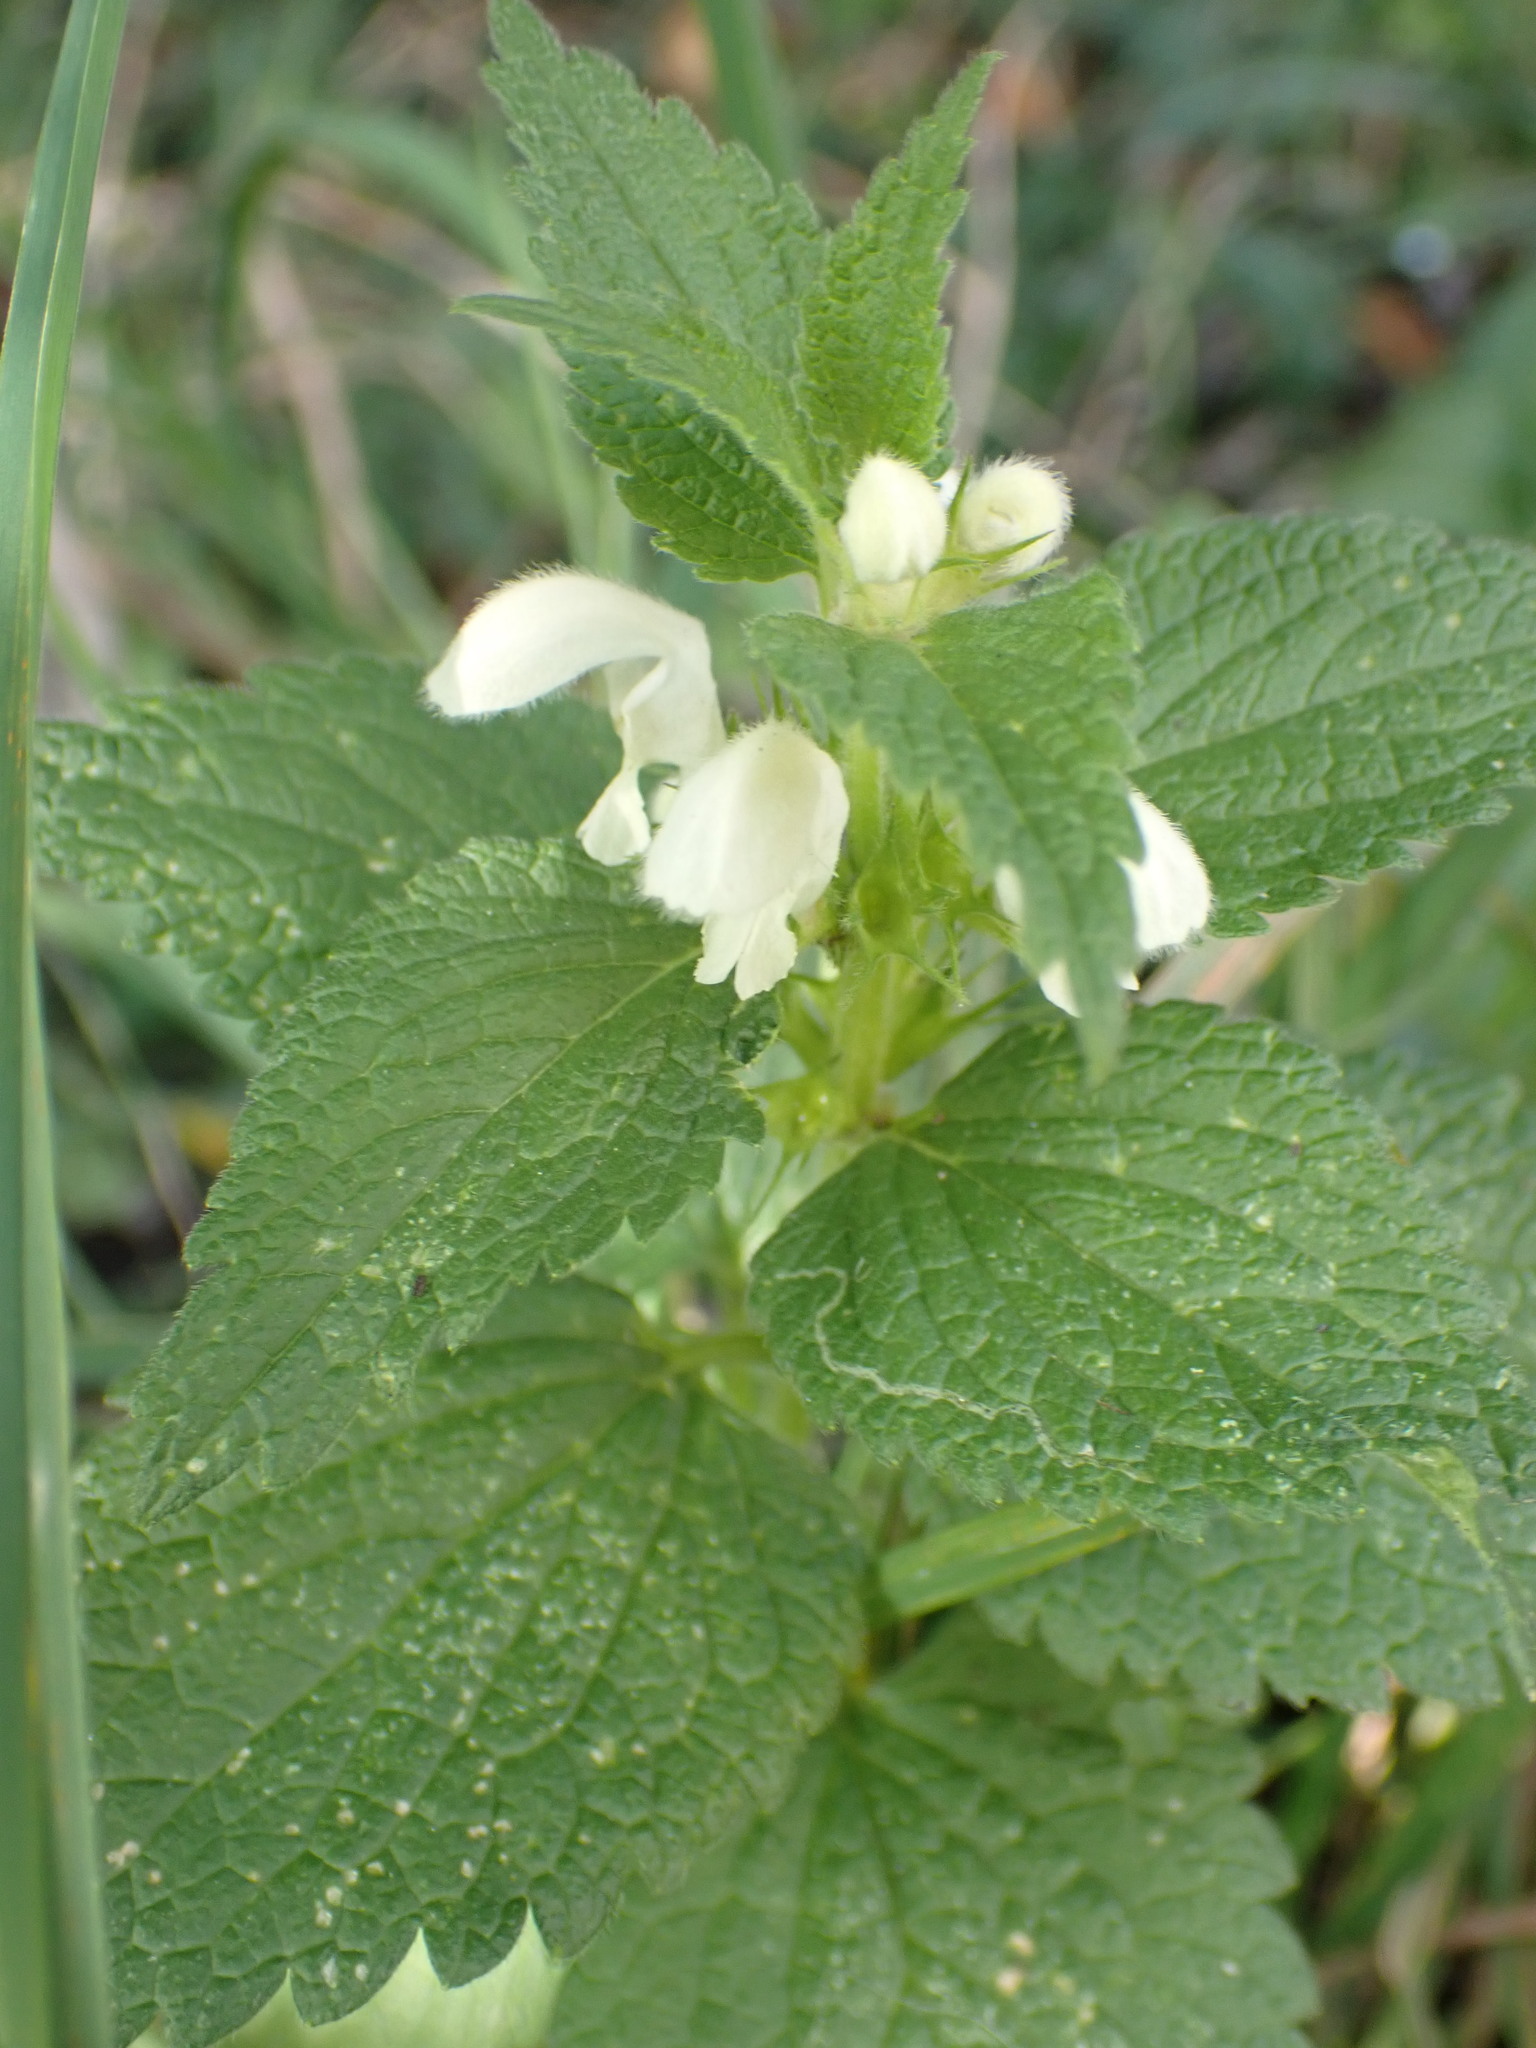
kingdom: Plantae
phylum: Tracheophyta
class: Magnoliopsida
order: Lamiales
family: Lamiaceae
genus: Lamium
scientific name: Lamium album
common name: White dead-nettle
